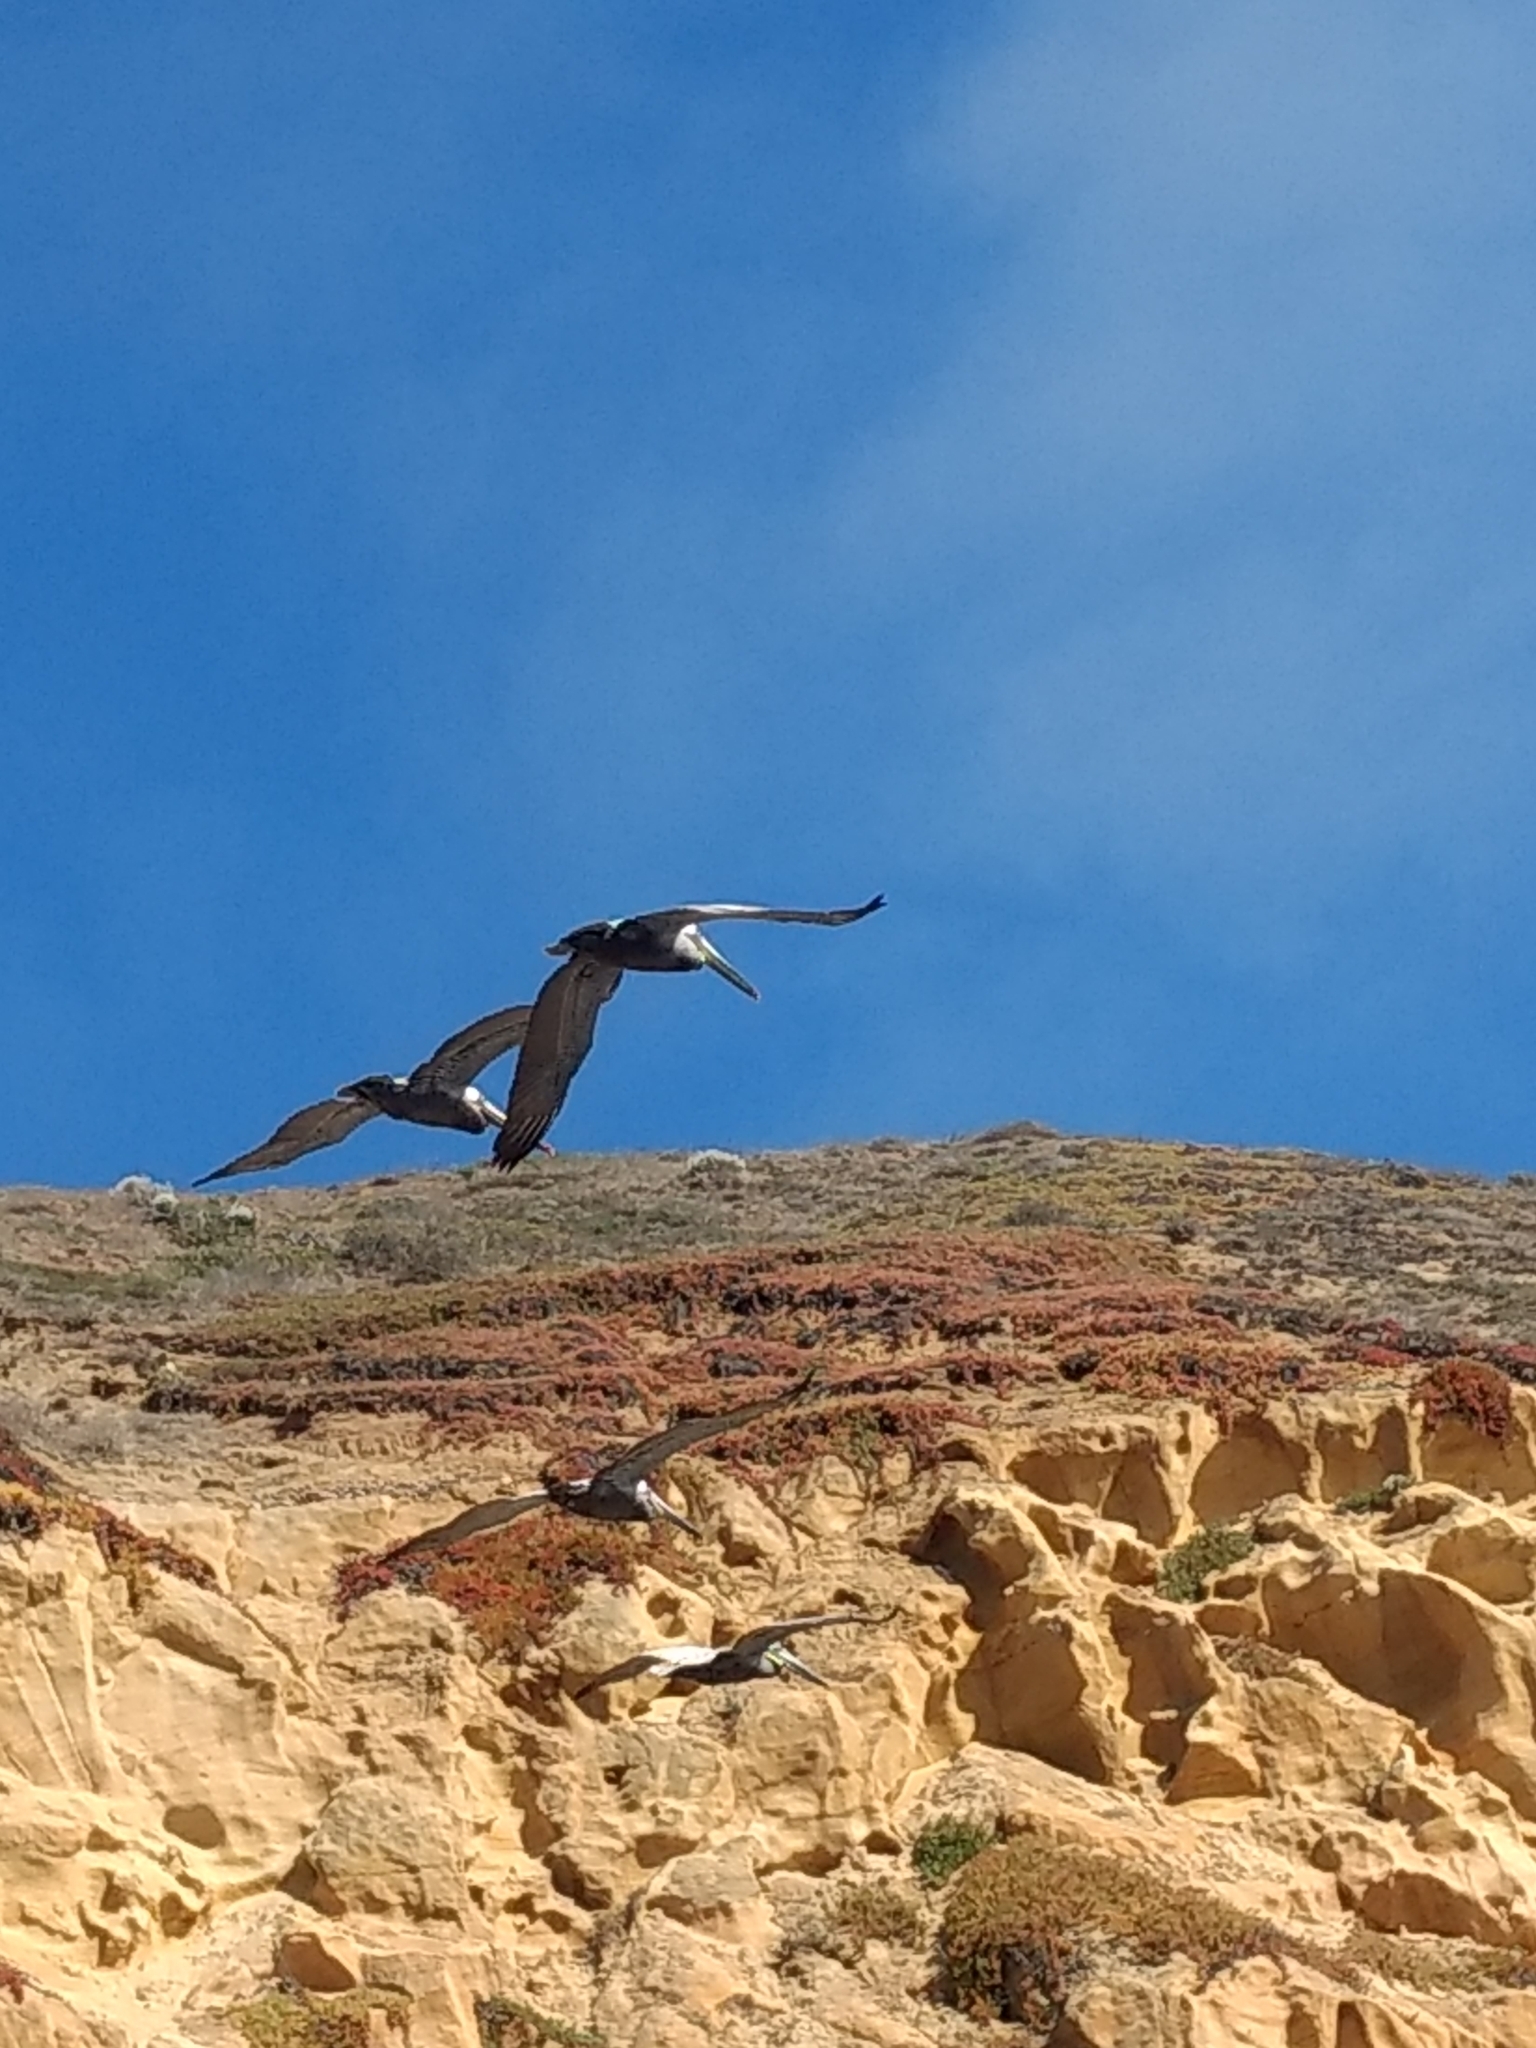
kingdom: Animalia
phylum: Chordata
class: Aves
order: Pelecaniformes
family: Pelecanidae
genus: Pelecanus
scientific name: Pelecanus occidentalis
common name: Brown pelican
